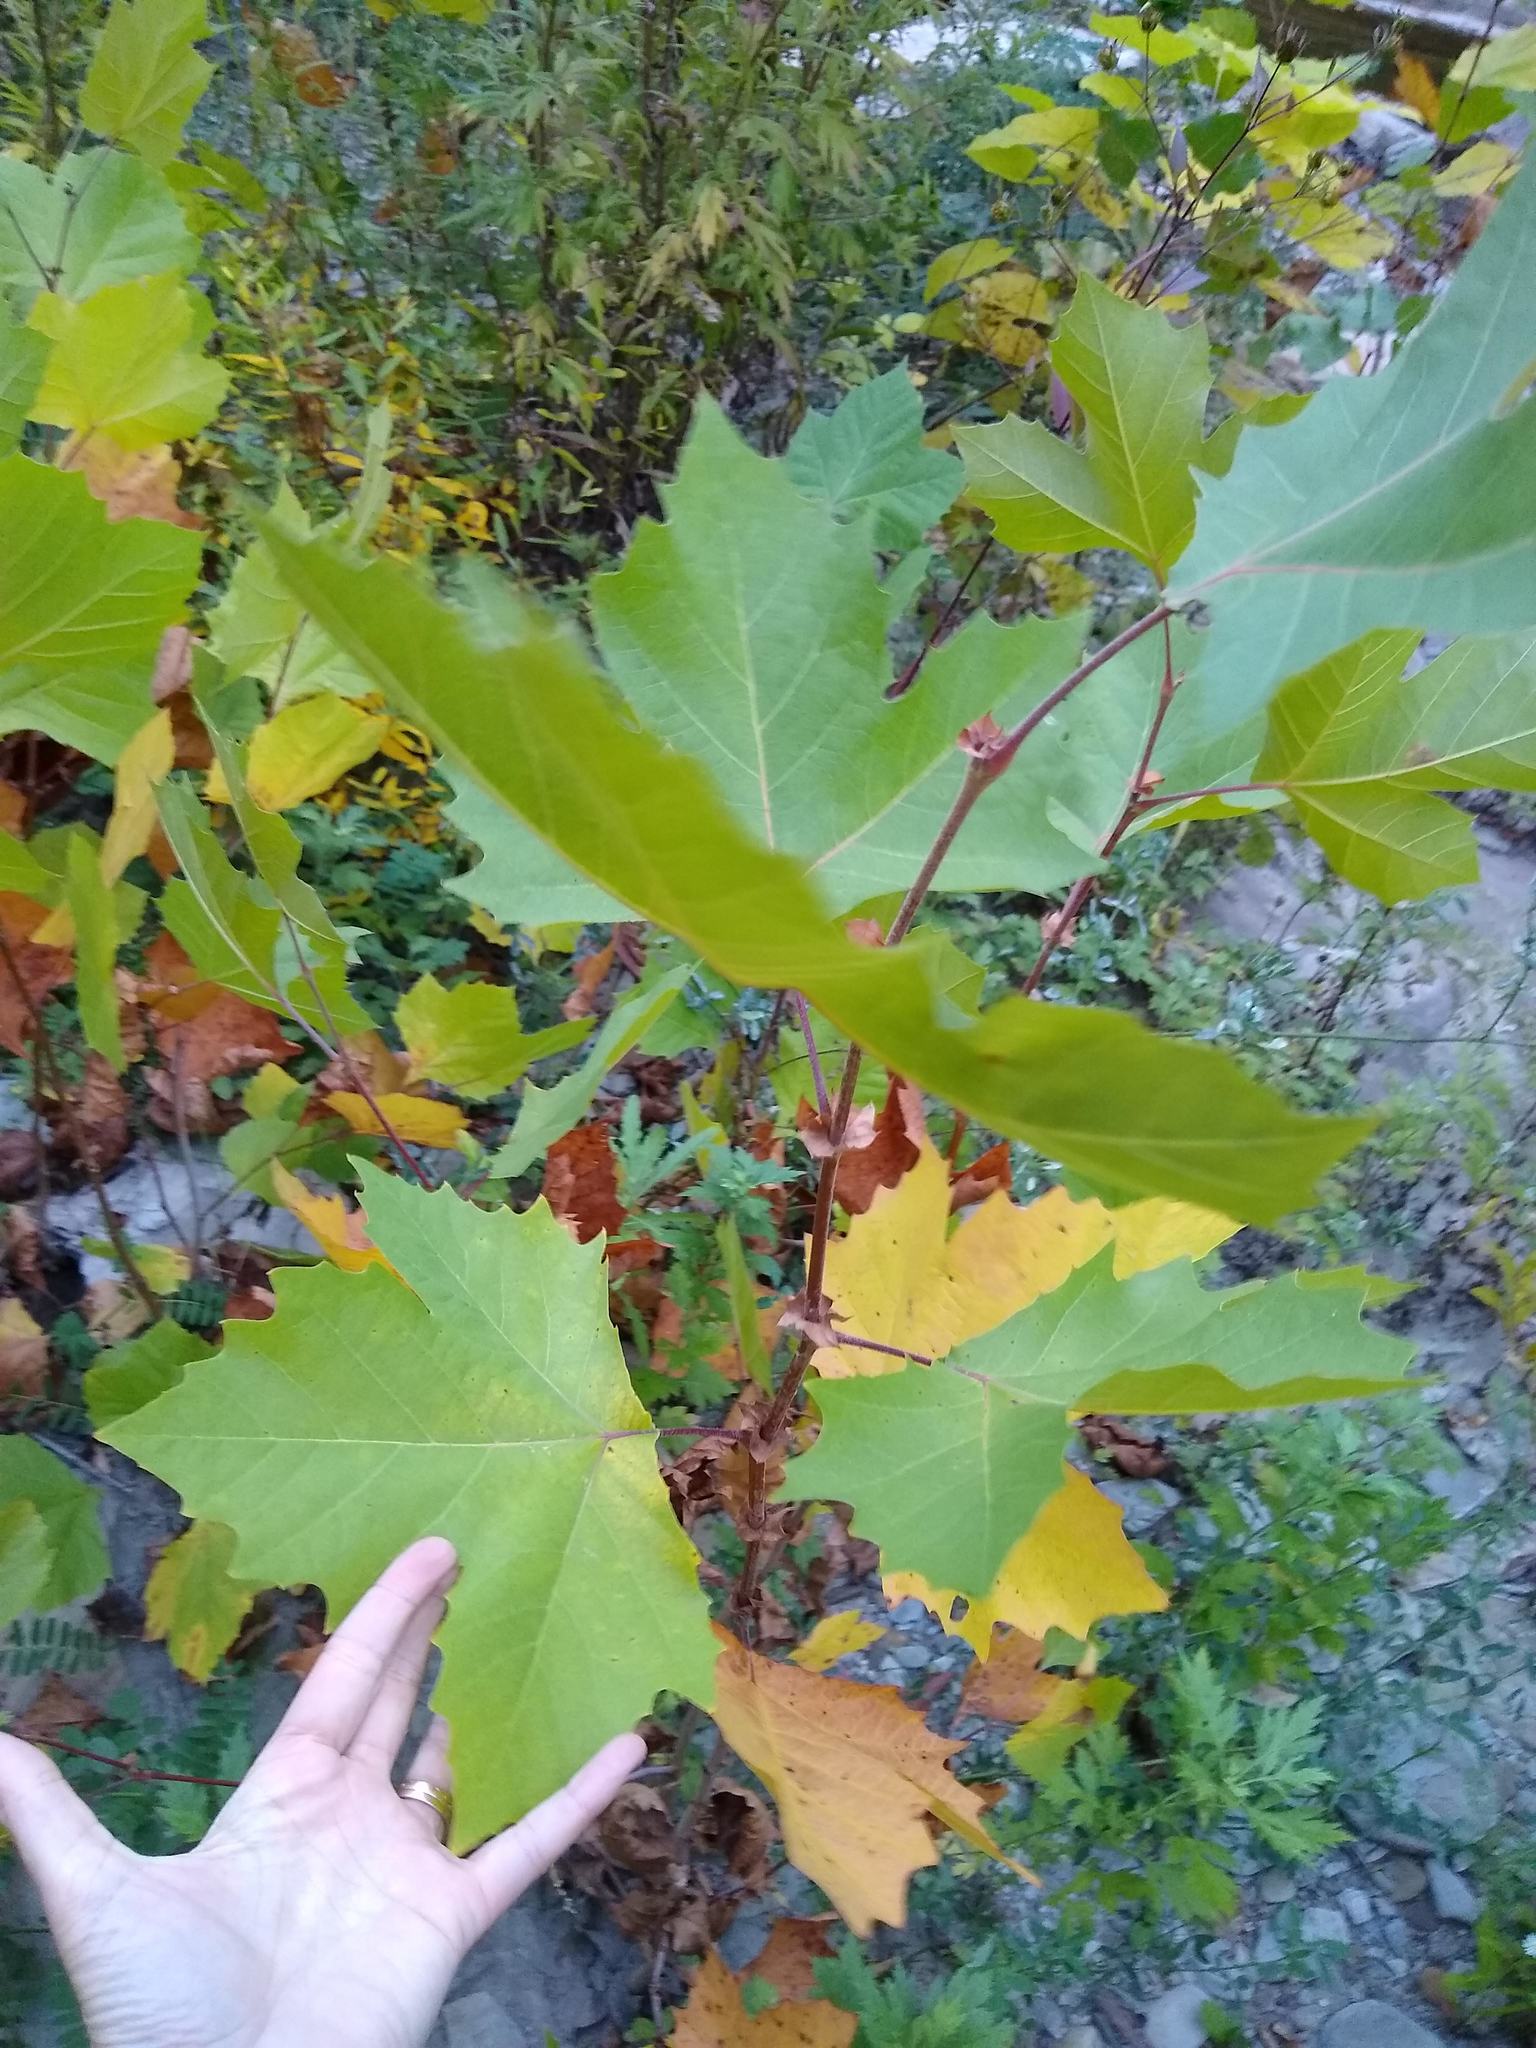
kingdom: Plantae
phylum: Tracheophyta
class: Magnoliopsida
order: Proteales
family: Platanaceae
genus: Platanus
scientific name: Platanus occidentalis
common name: American sycamore
